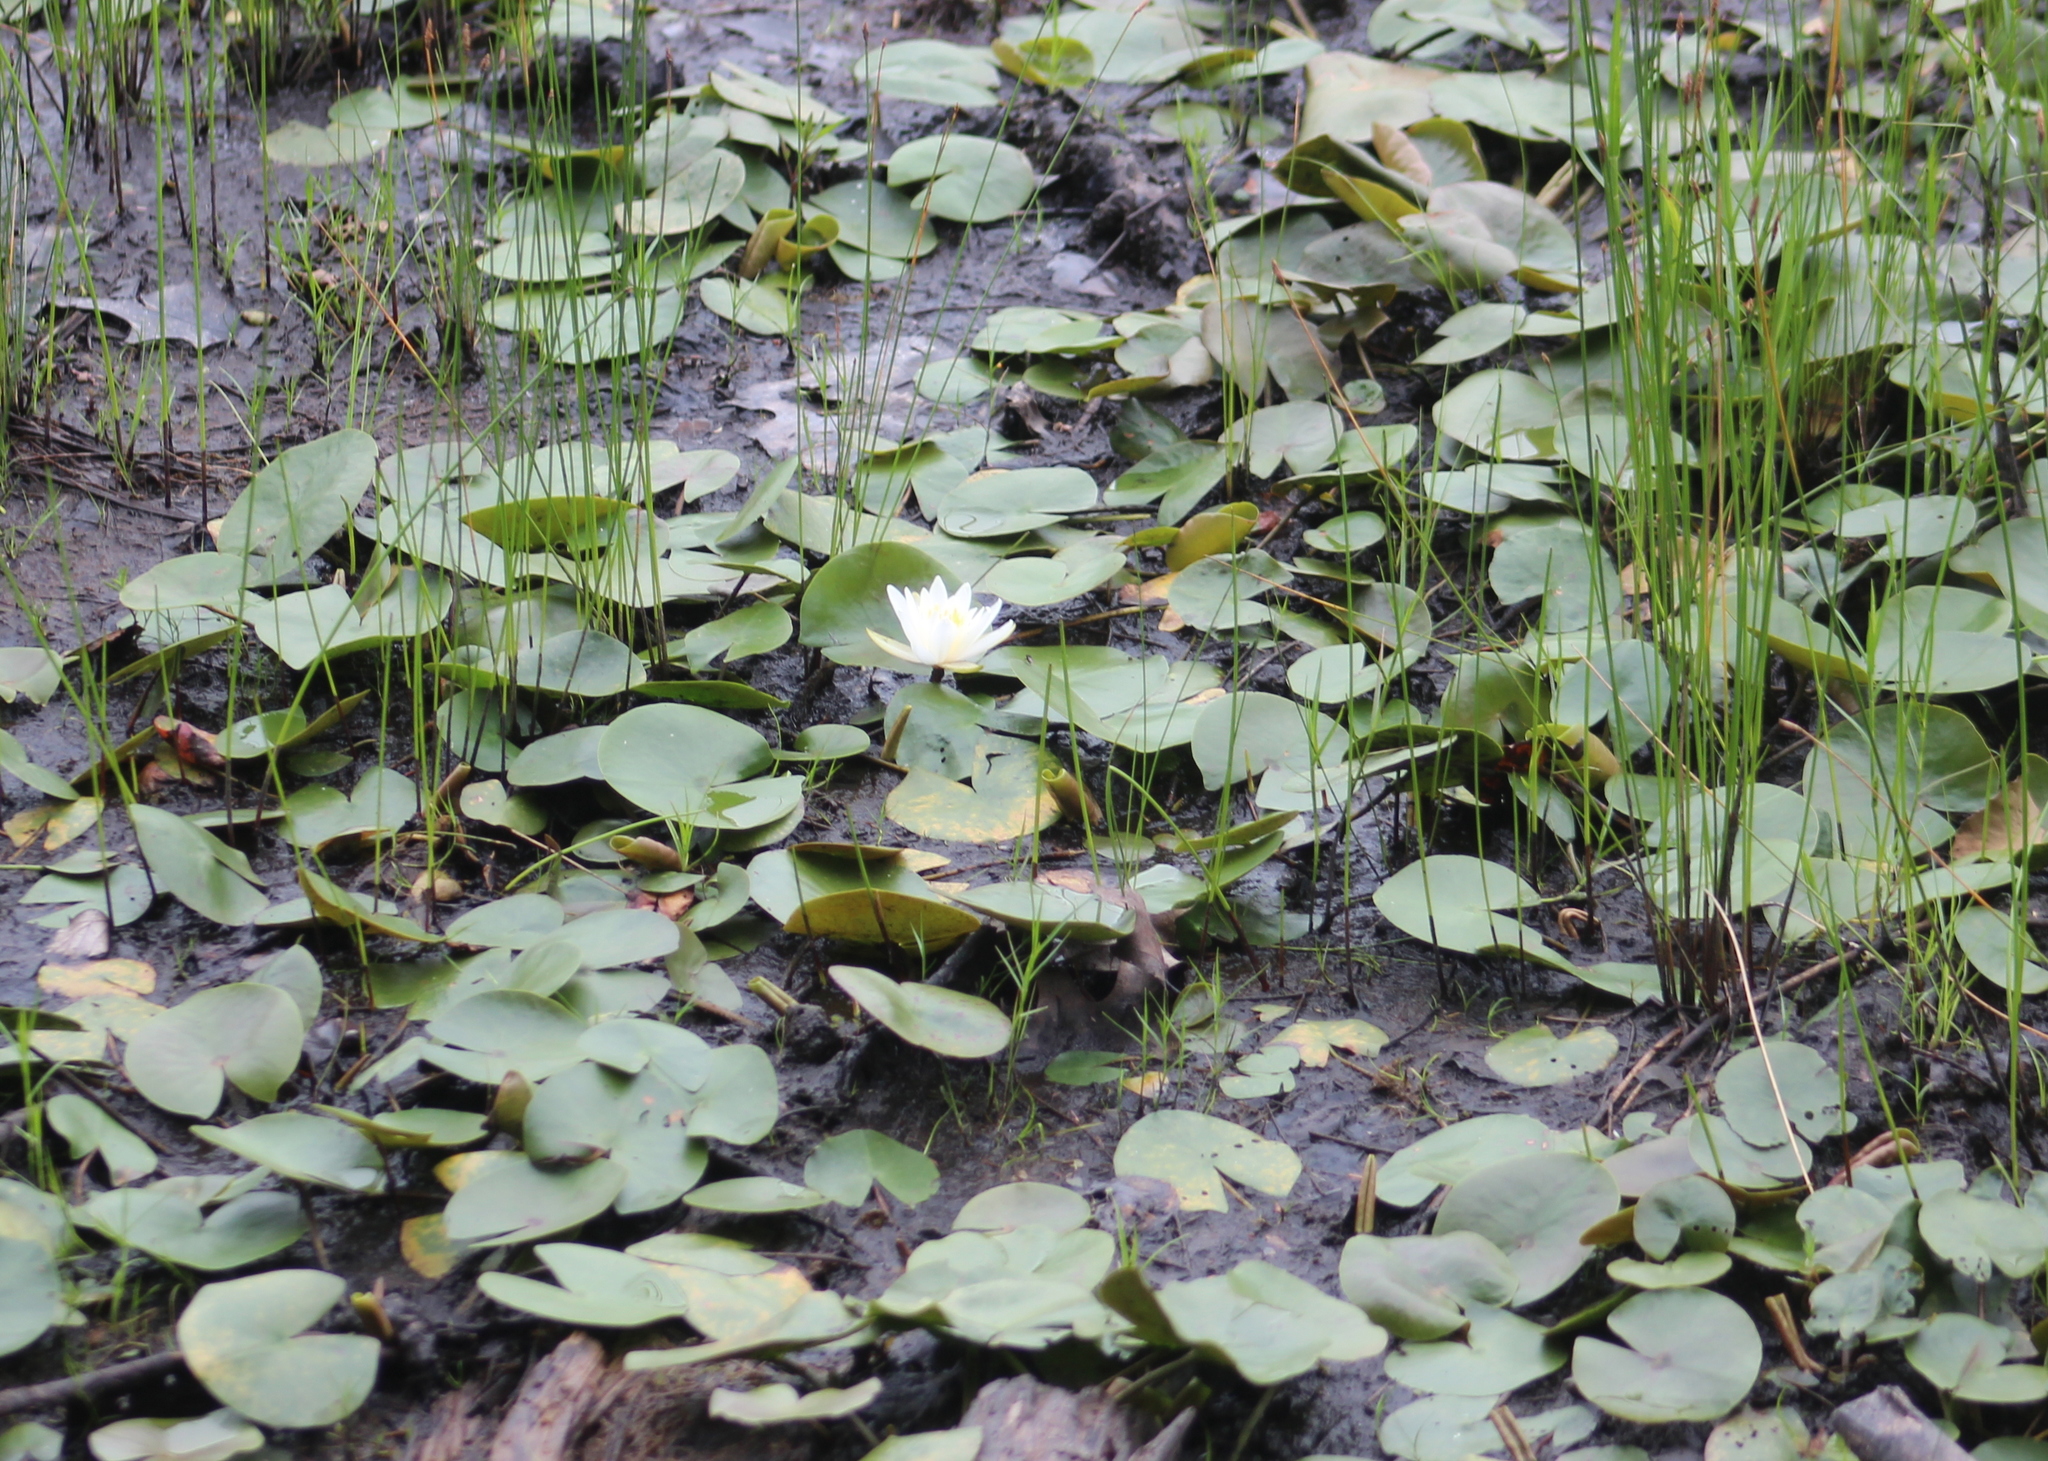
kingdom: Plantae
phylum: Tracheophyta
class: Magnoliopsida
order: Nymphaeales
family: Nymphaeaceae
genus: Nymphaea
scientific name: Nymphaea odorata
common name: Fragrant water-lily
